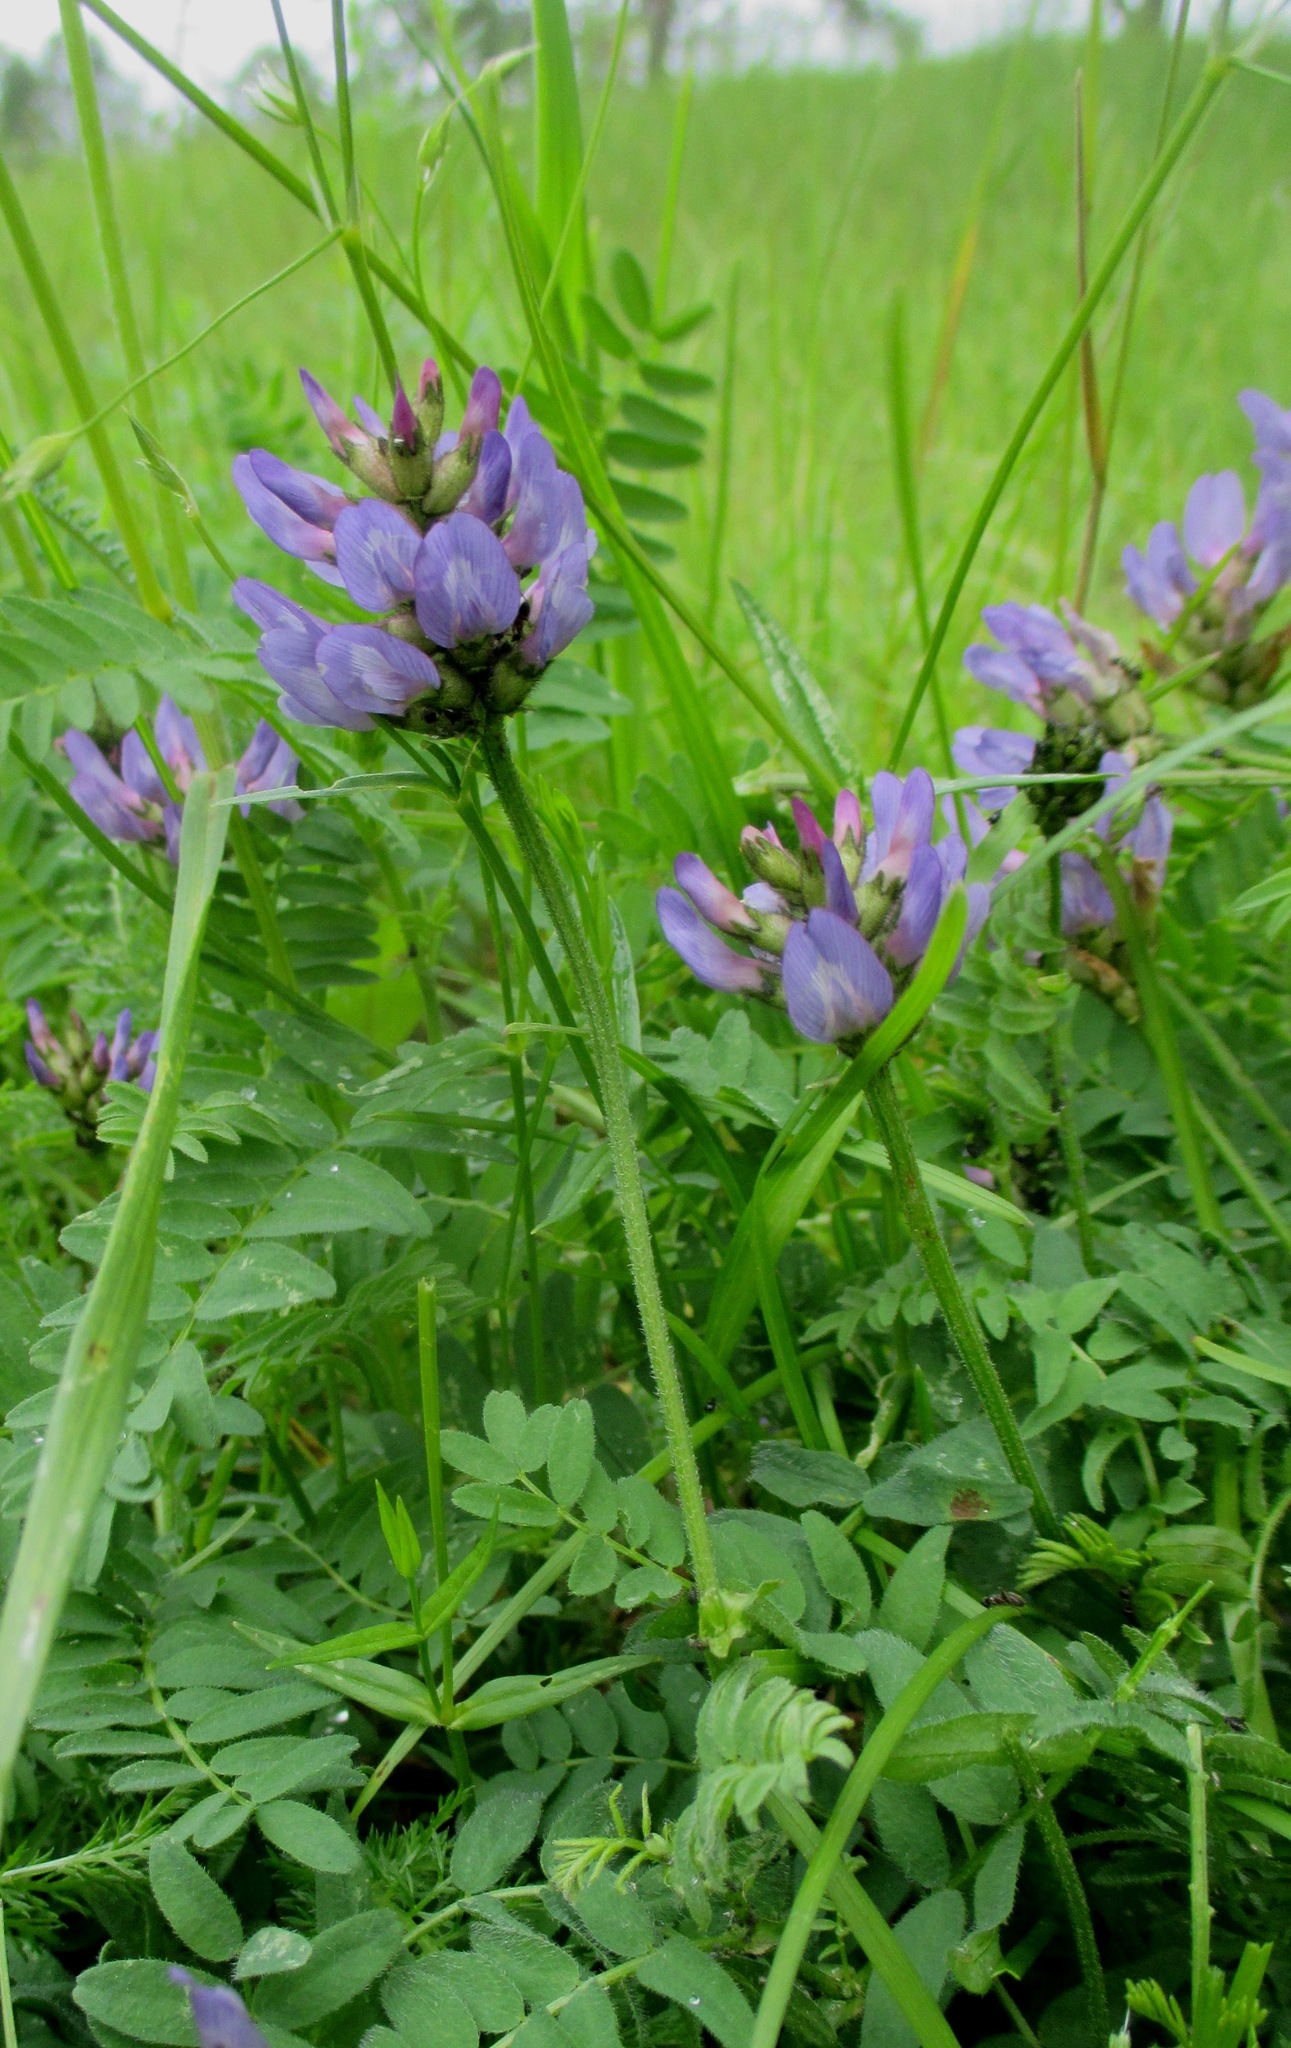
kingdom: Plantae
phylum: Tracheophyta
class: Magnoliopsida
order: Fabales
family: Fabaceae
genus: Astragalus
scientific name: Astragalus danicus
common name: Purple milk-vetch
